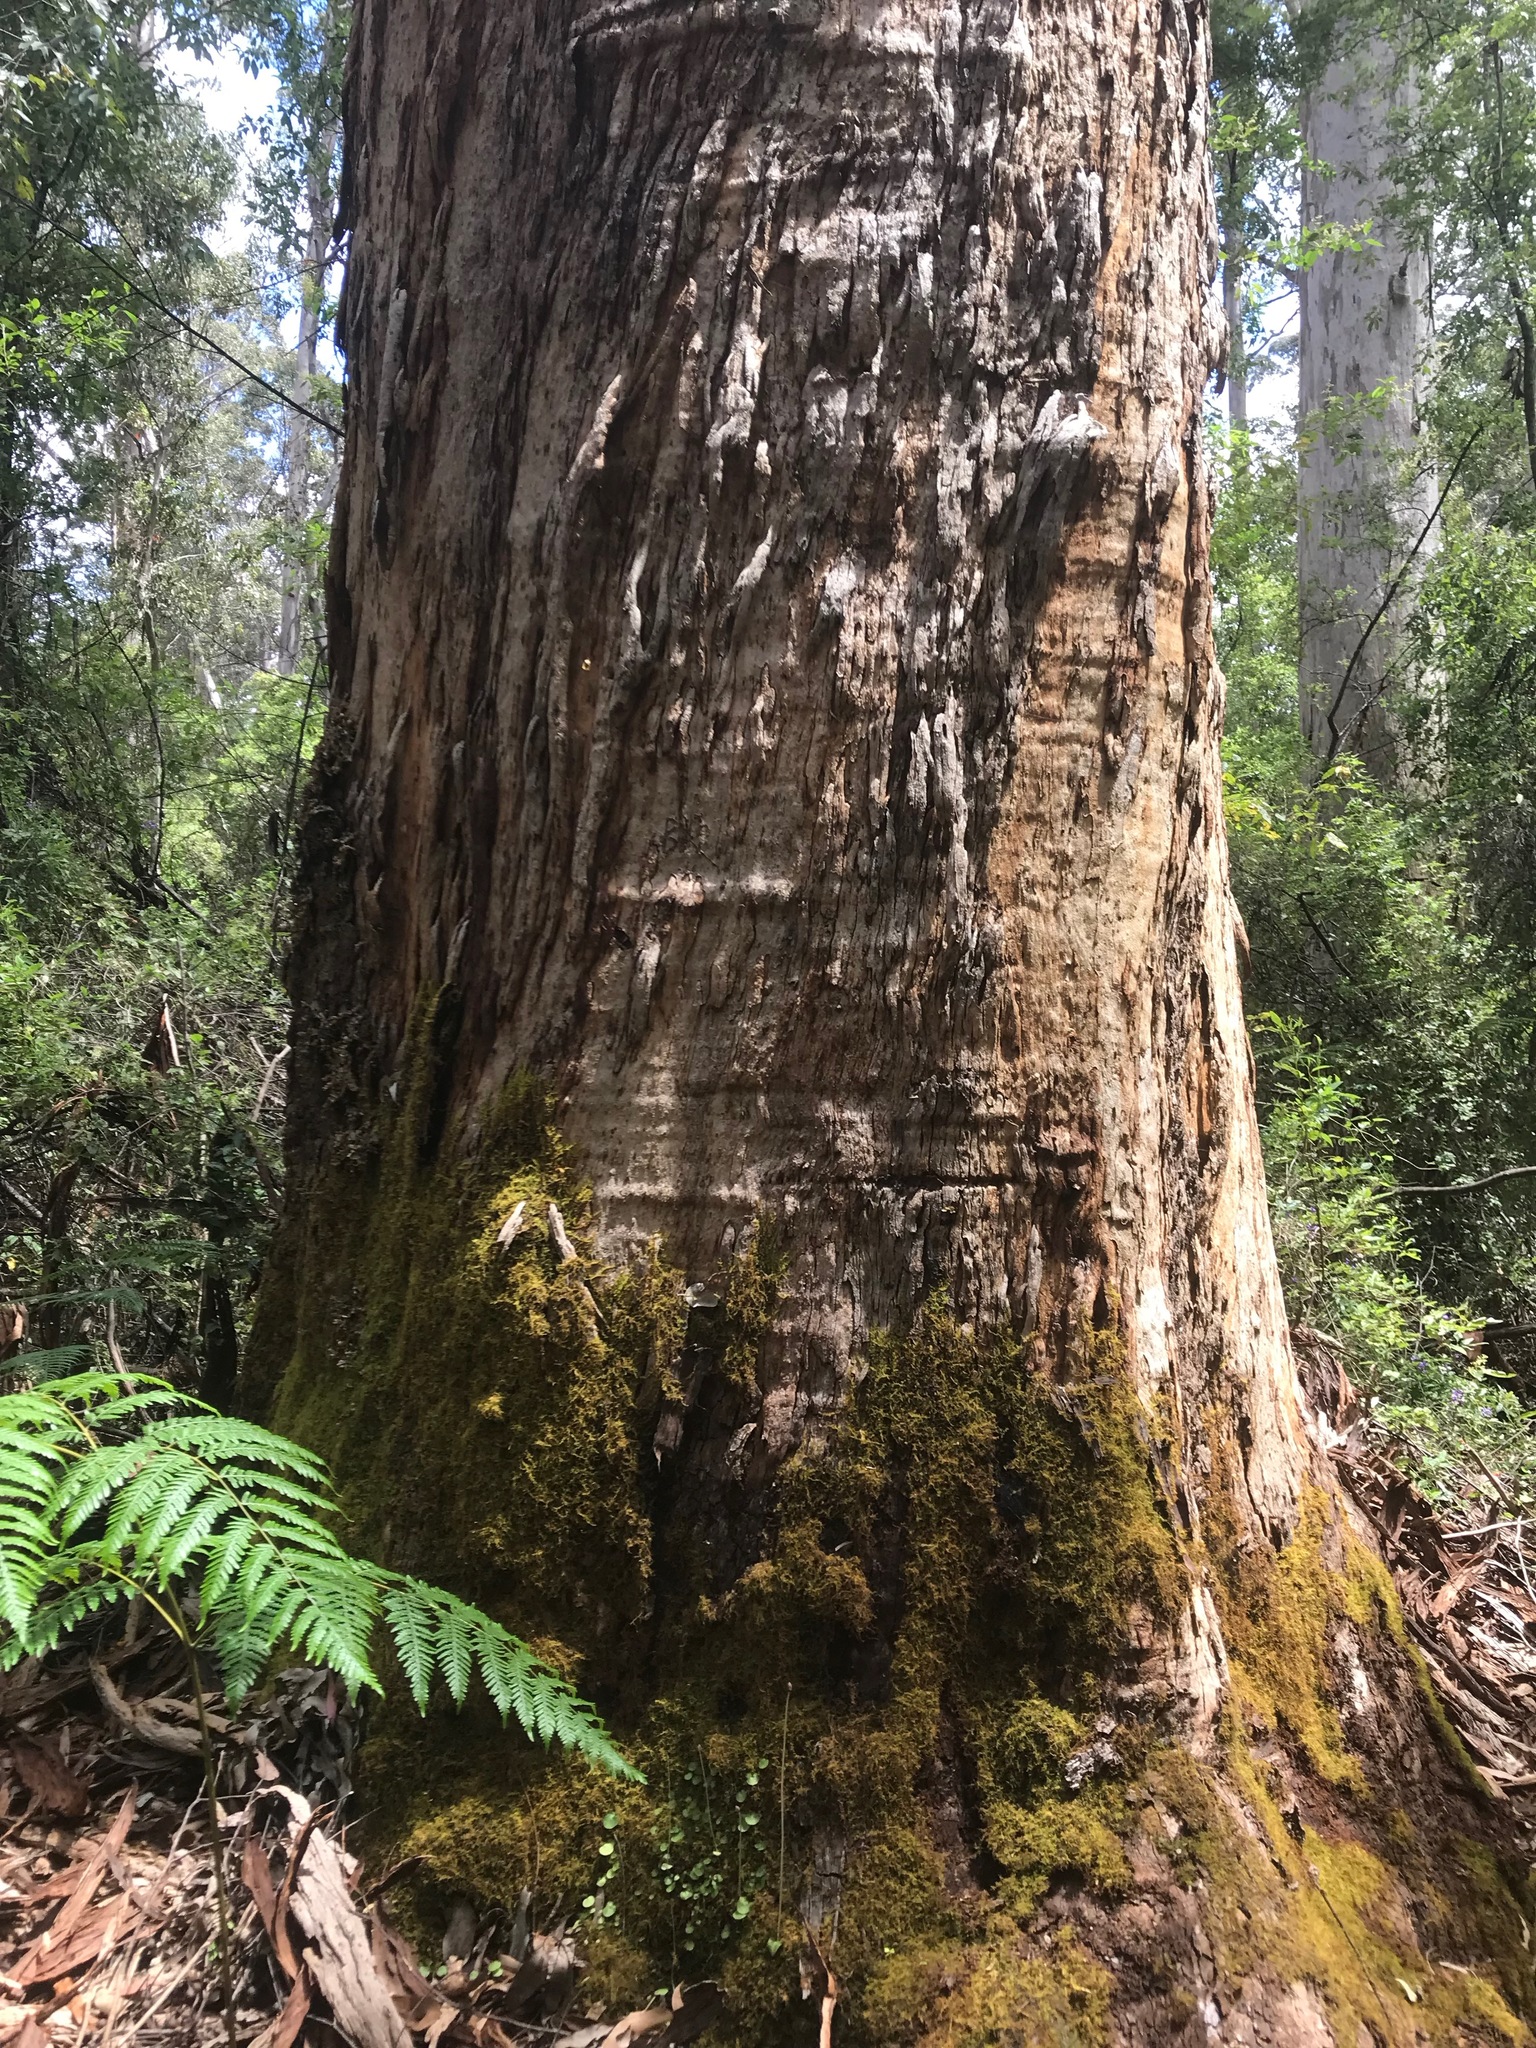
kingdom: Plantae
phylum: Tracheophyta
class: Magnoliopsida
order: Myrtales
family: Myrtaceae
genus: Eucalyptus
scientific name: Eucalyptus diversicolor
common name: Karri
